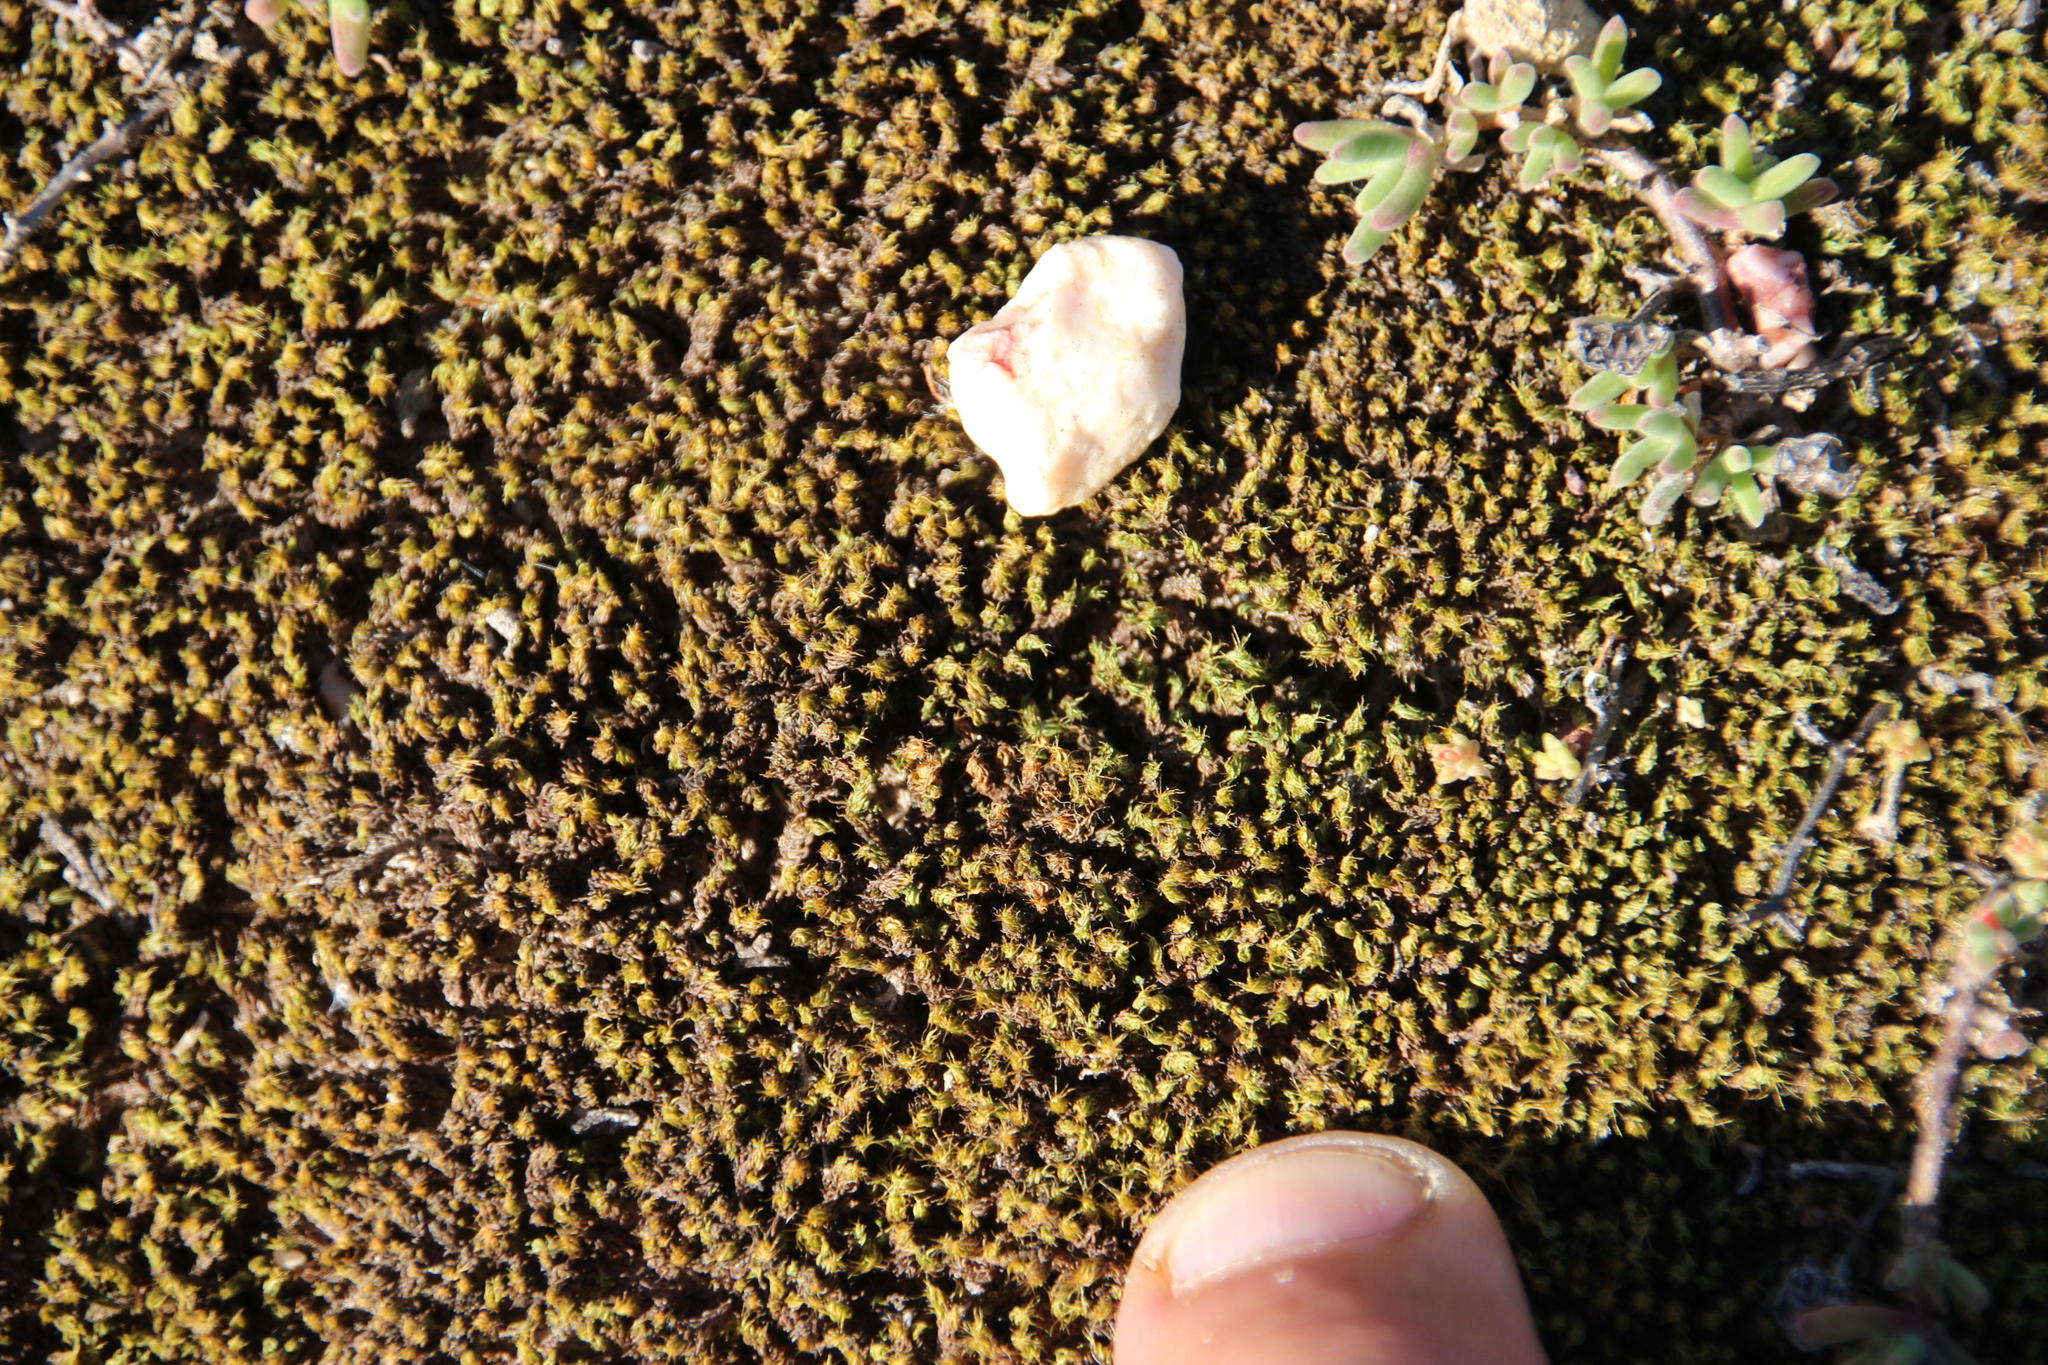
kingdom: Plantae
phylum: Bryophyta
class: Bryopsida
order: Pottiales
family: Pottiaceae
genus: Pseudocrossidium
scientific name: Pseudocrossidium crinitum
